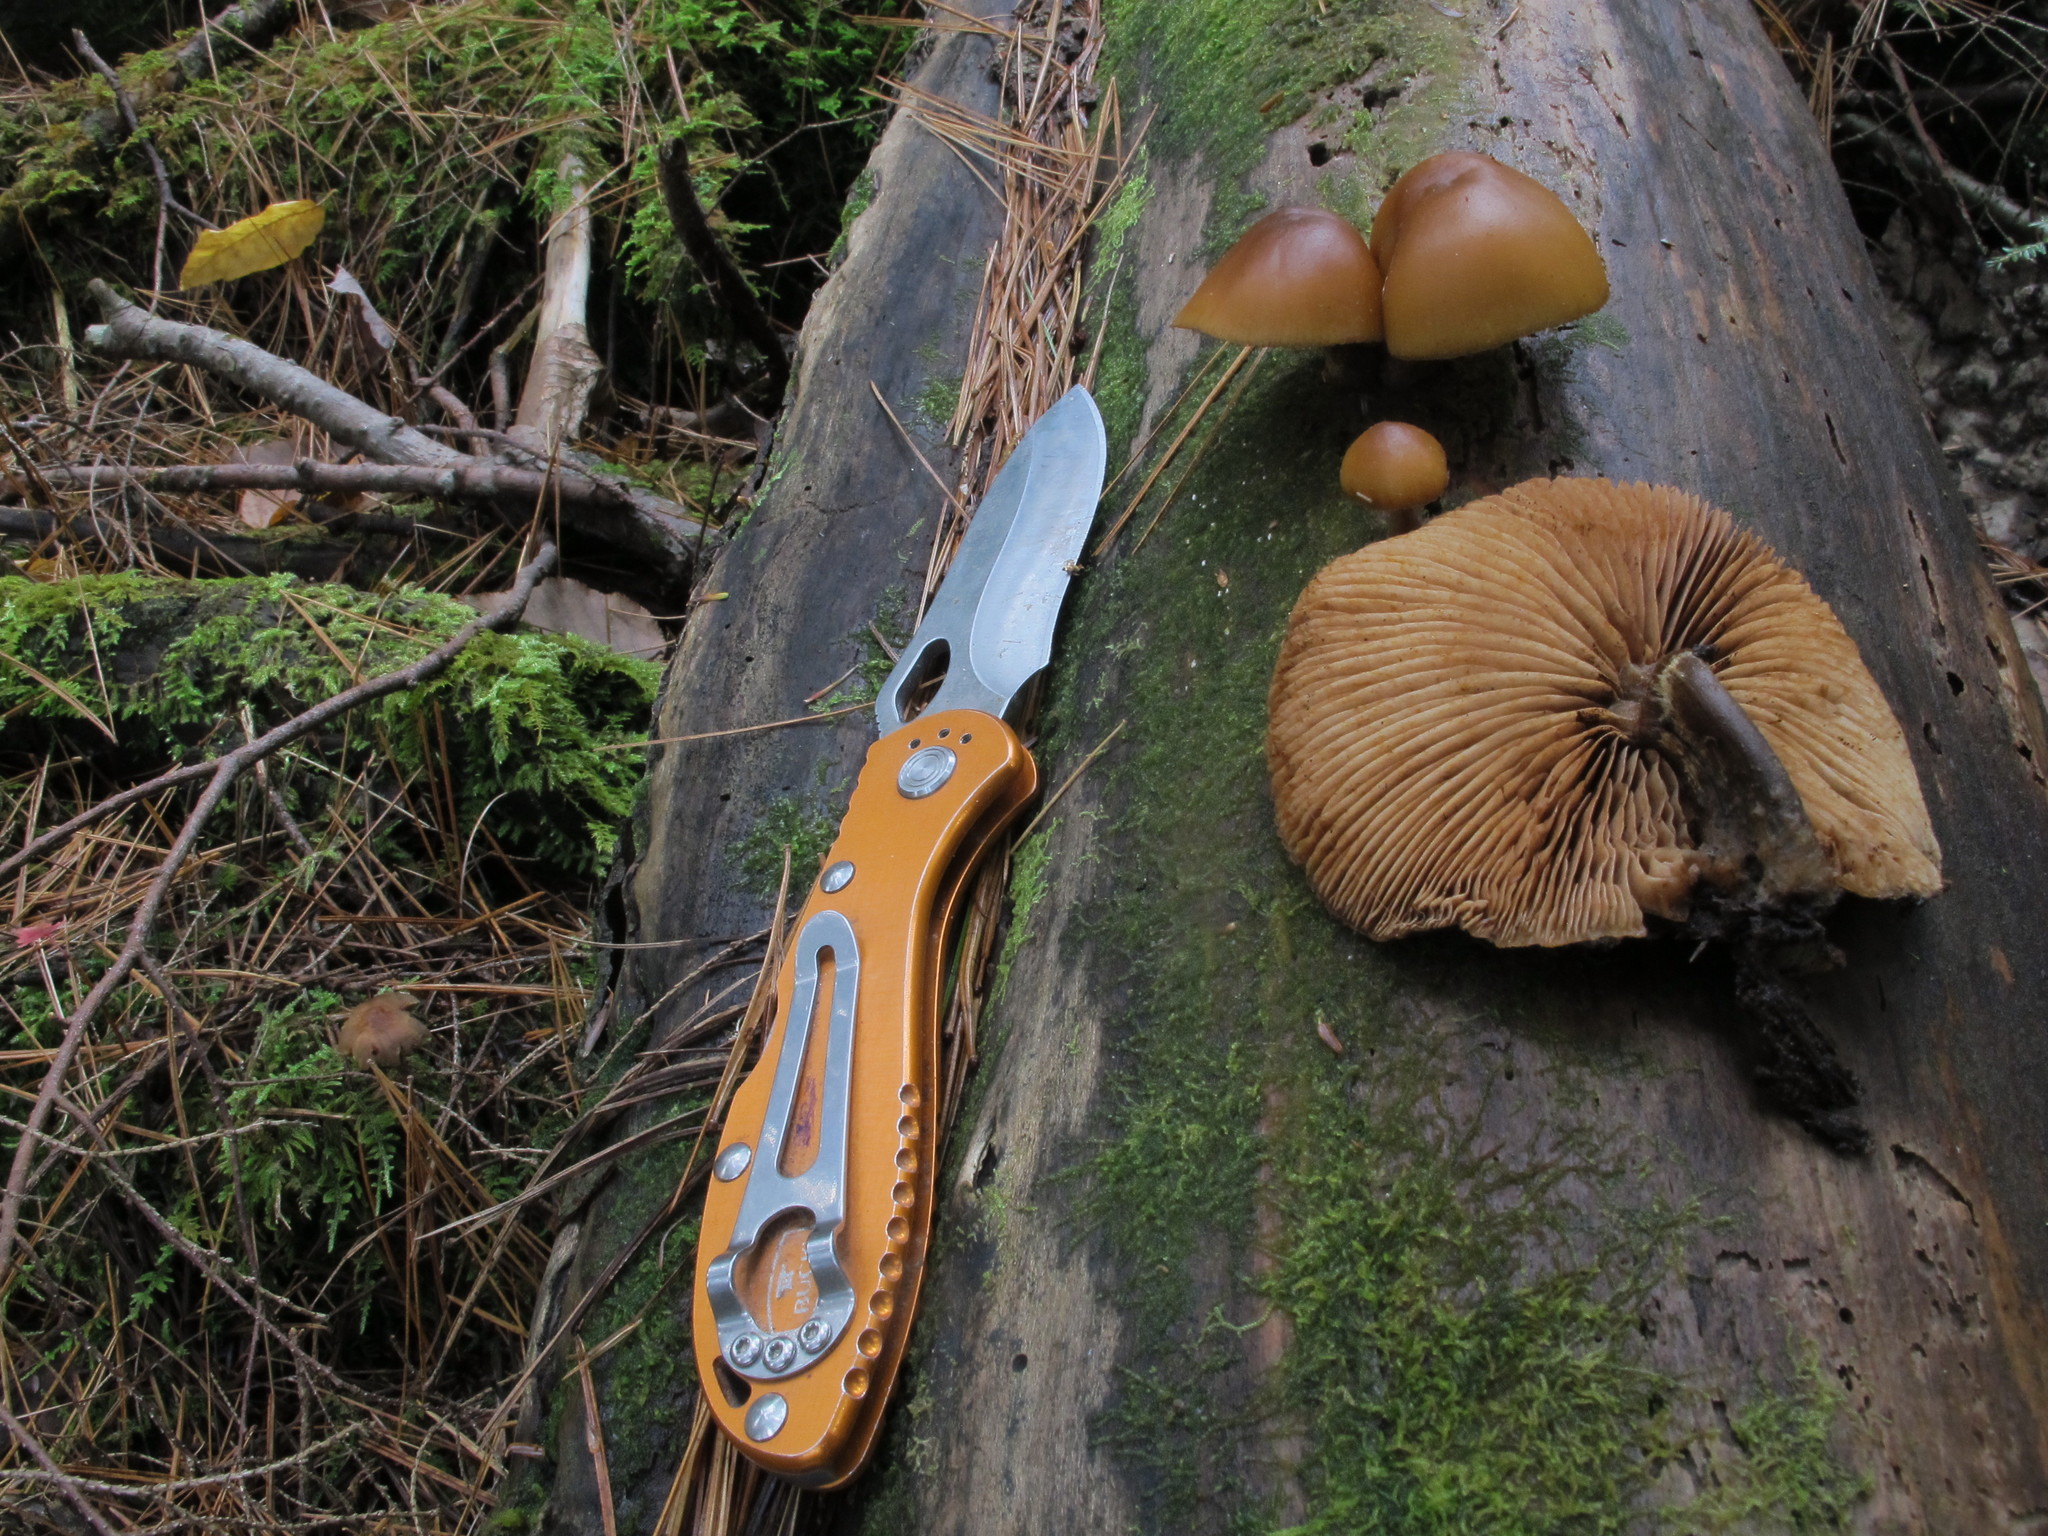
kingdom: Fungi
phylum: Basidiomycota
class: Agaricomycetes
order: Agaricales
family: Hymenogastraceae
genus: Galerina
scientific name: Galerina marginata
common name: Funeral bell
